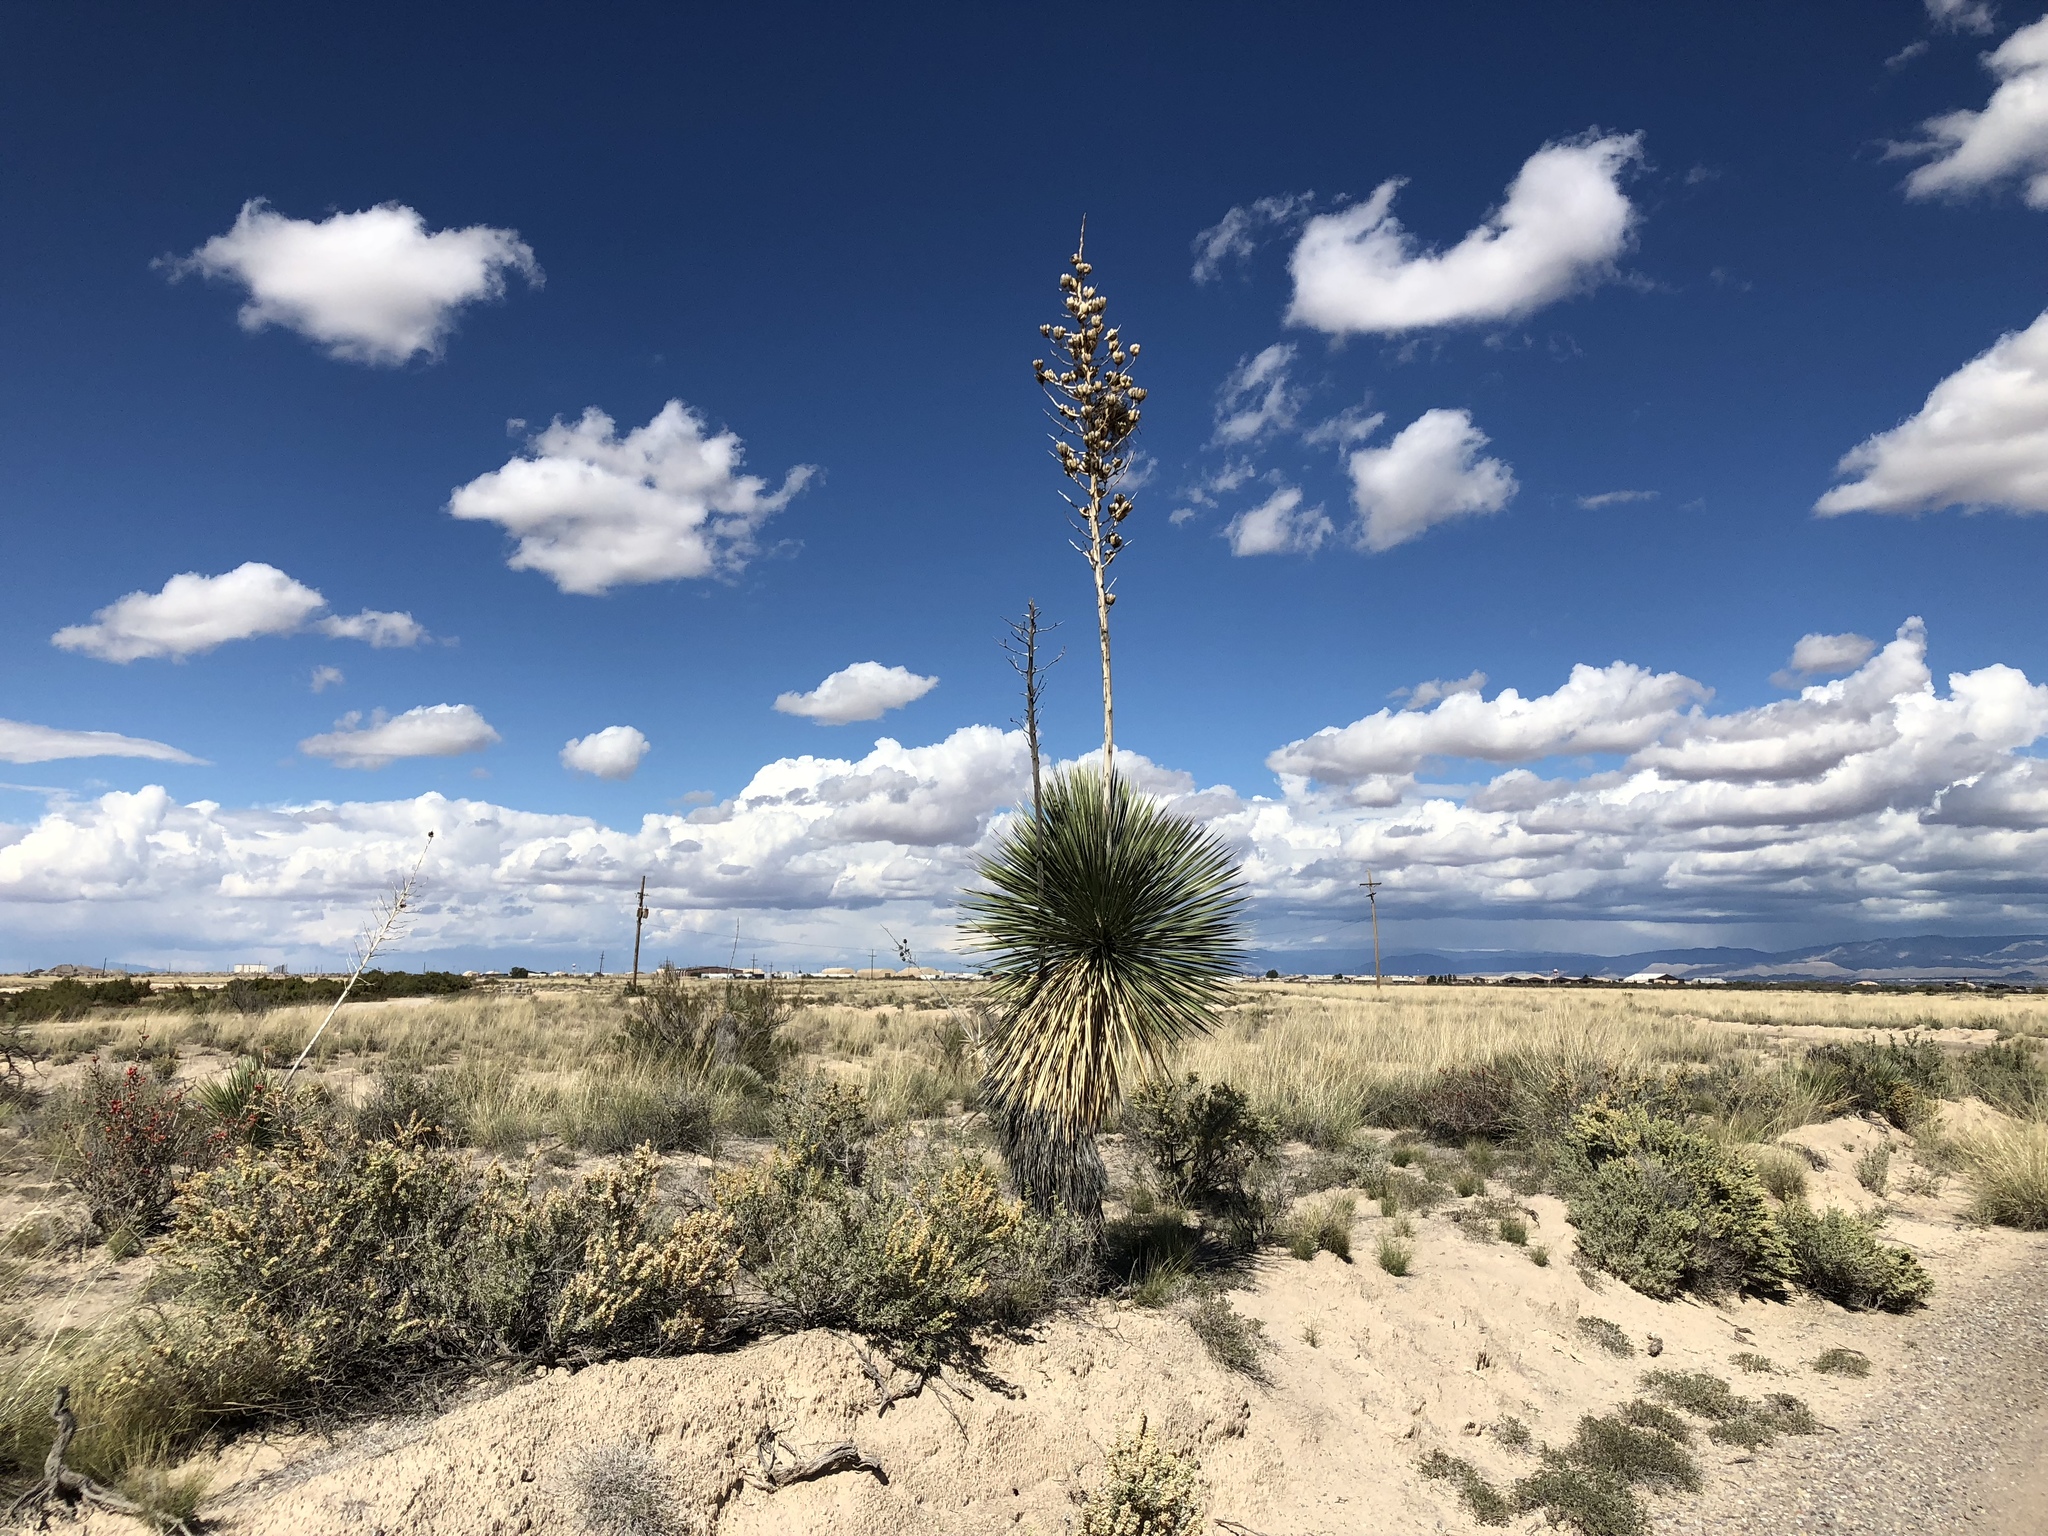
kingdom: Plantae
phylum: Tracheophyta
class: Liliopsida
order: Asparagales
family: Asparagaceae
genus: Yucca
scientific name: Yucca elata
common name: Palmella
